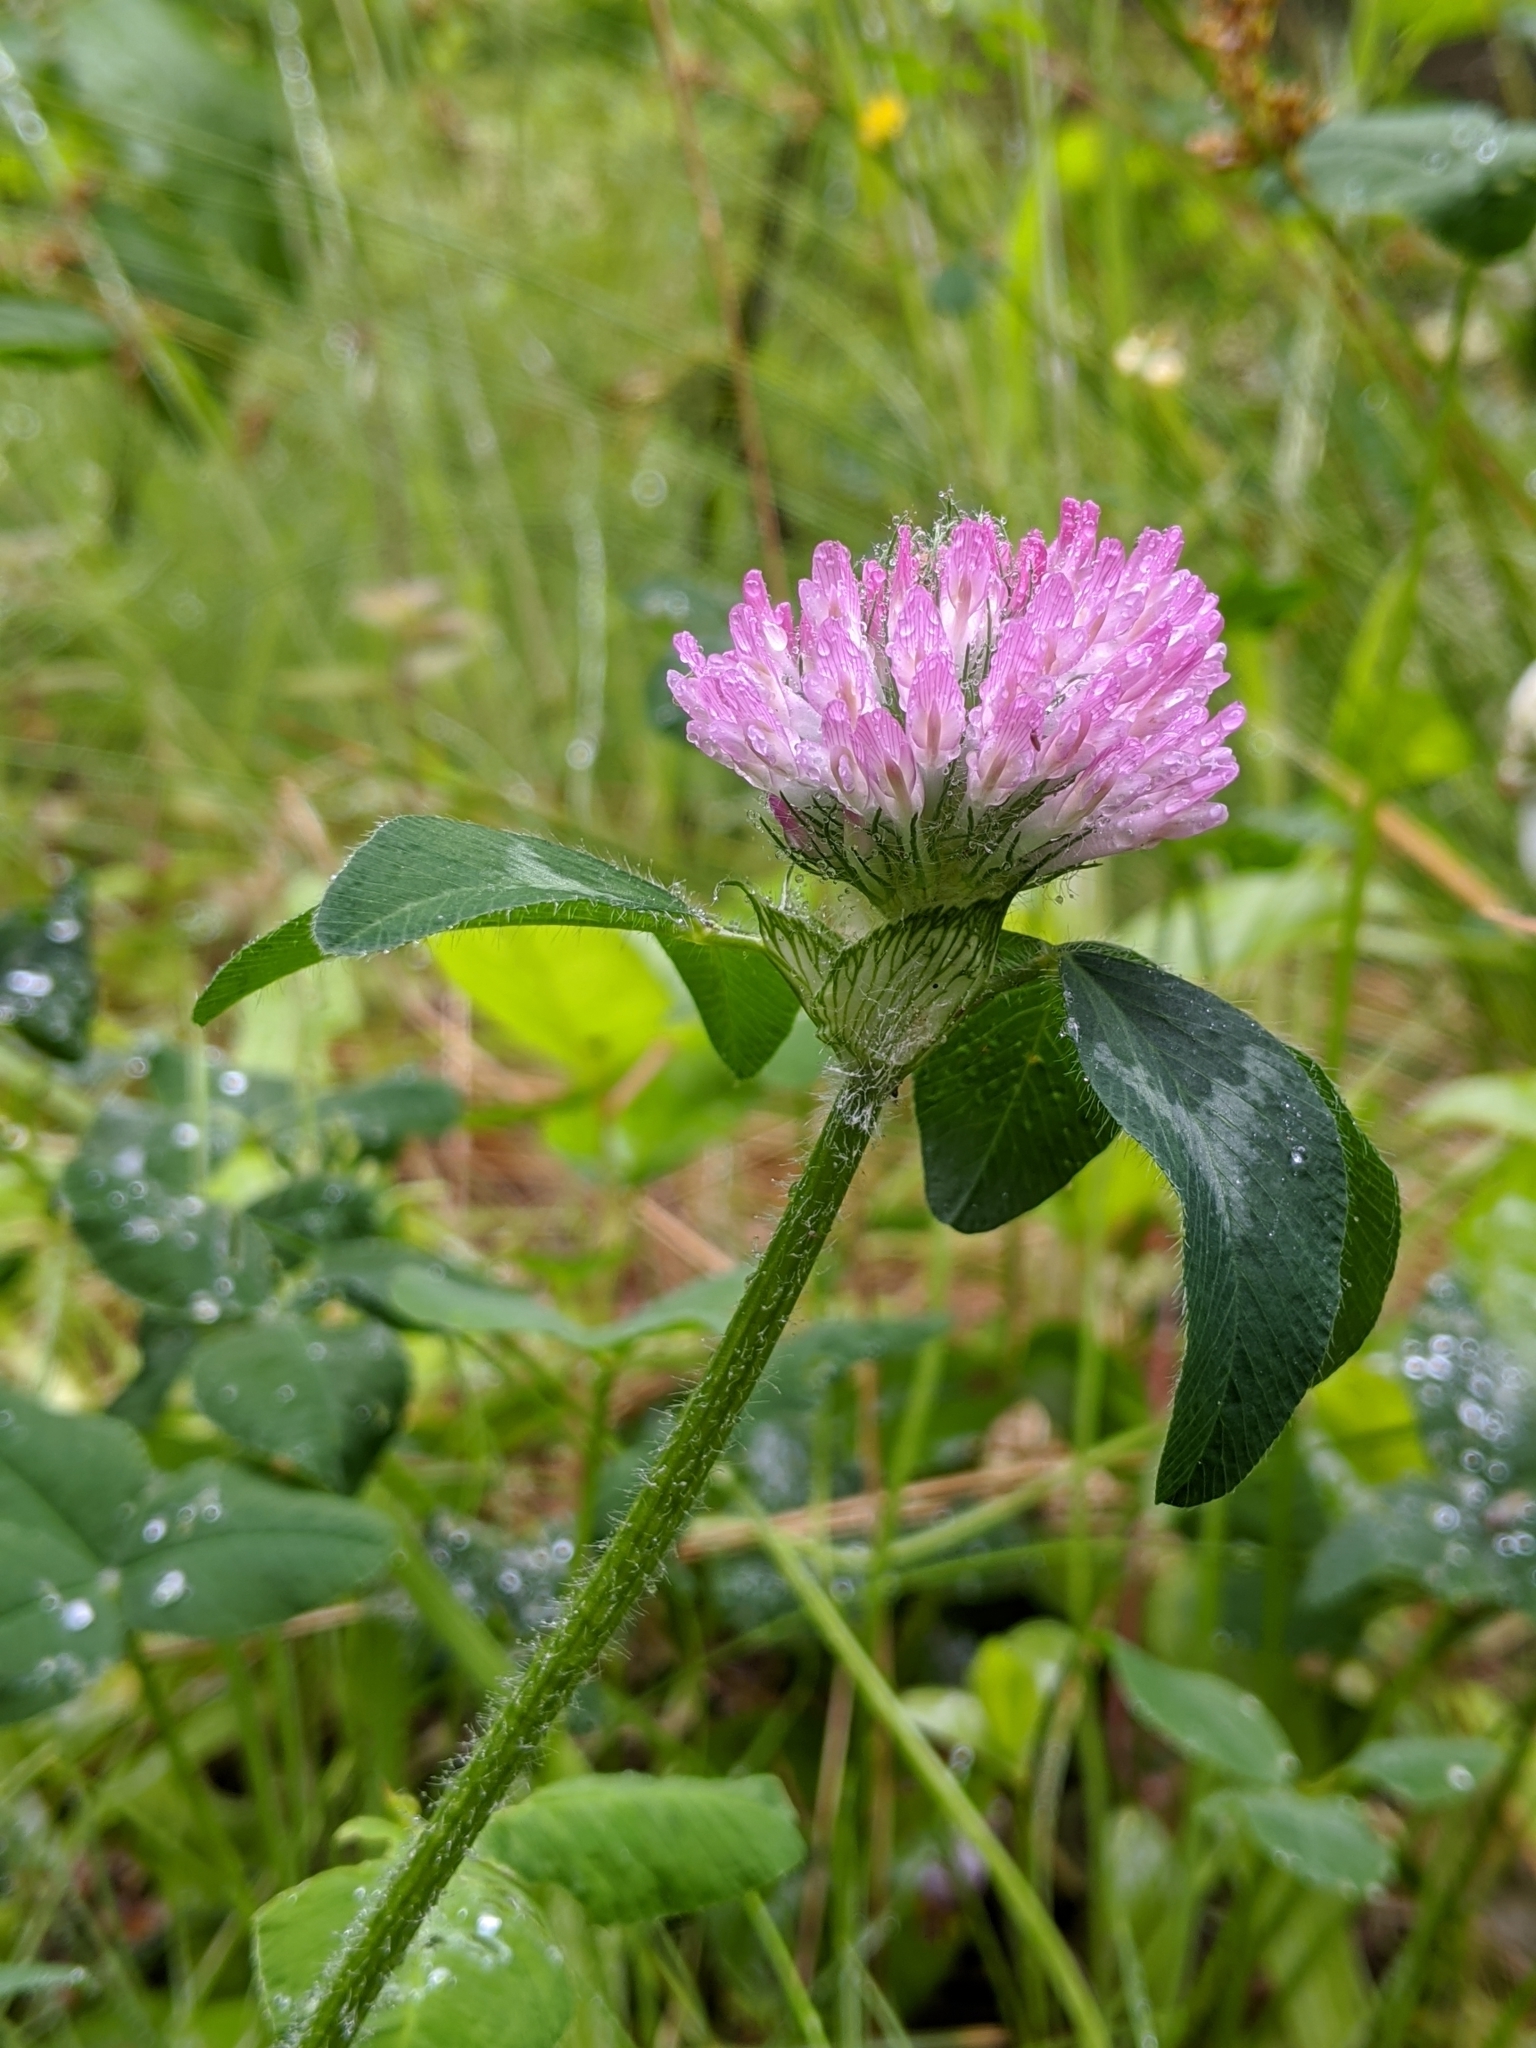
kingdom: Plantae
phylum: Tracheophyta
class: Magnoliopsida
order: Fabales
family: Fabaceae
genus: Trifolium
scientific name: Trifolium pratense
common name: Red clover
